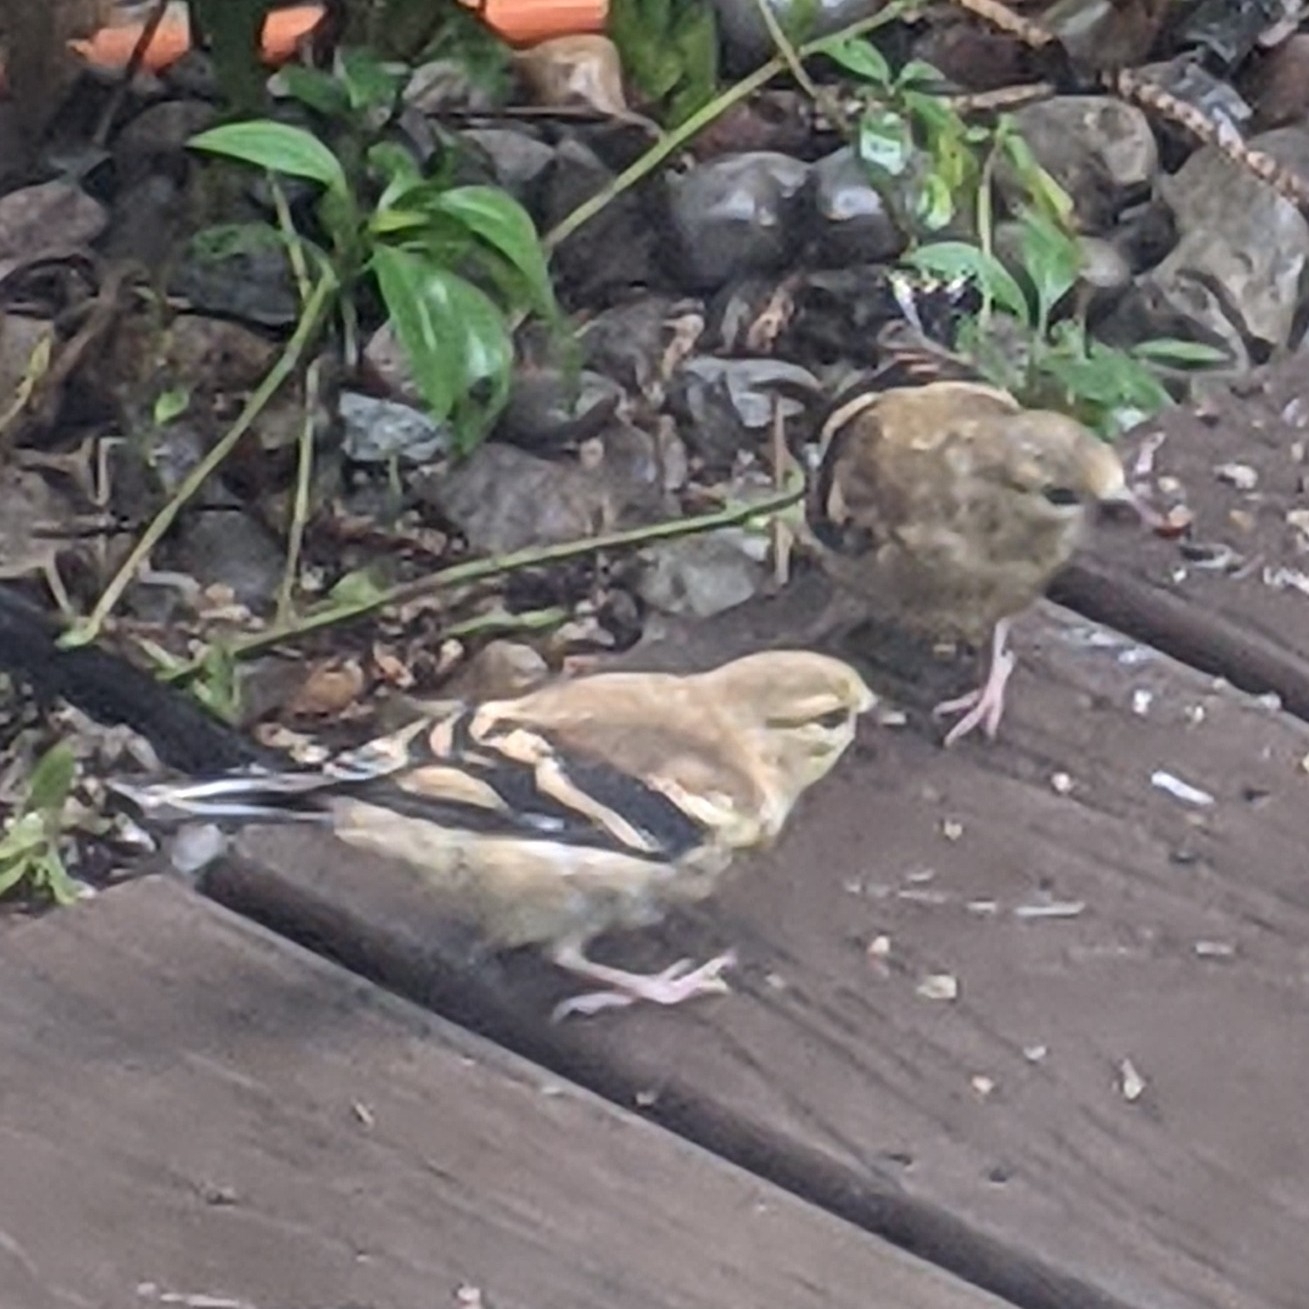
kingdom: Animalia
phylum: Chordata
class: Aves
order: Passeriformes
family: Fringillidae
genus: Spinus
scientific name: Spinus tristis
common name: American goldfinch
